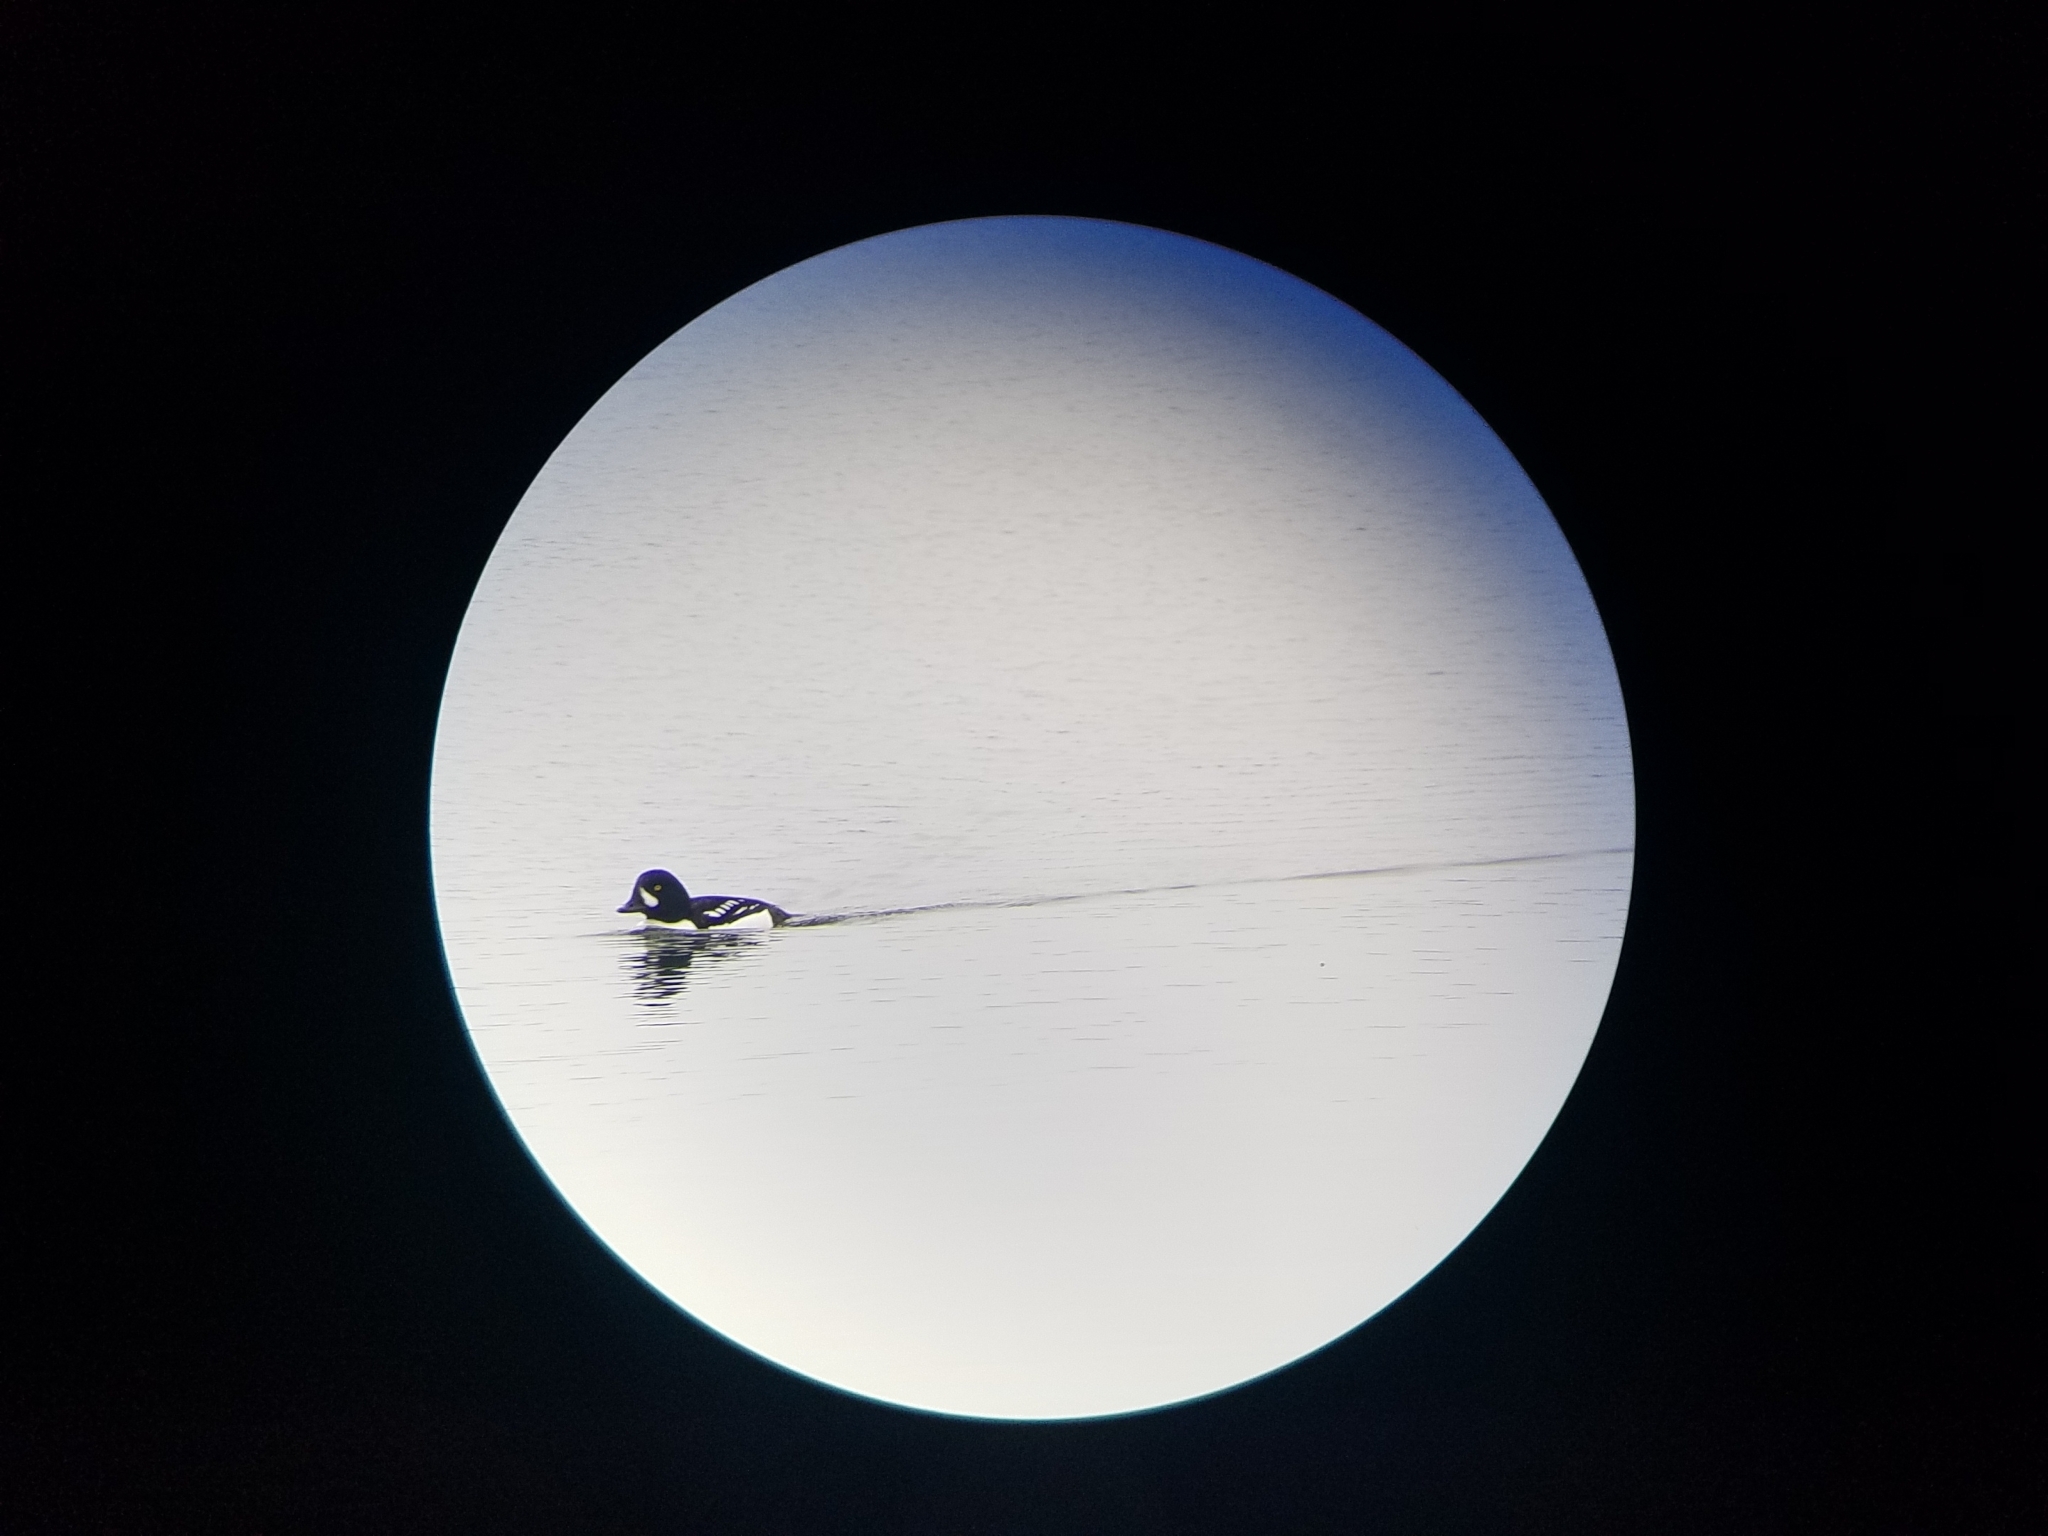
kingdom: Animalia
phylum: Chordata
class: Aves
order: Anseriformes
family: Anatidae
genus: Bucephala
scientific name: Bucephala islandica
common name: Barrow's goldeneye
